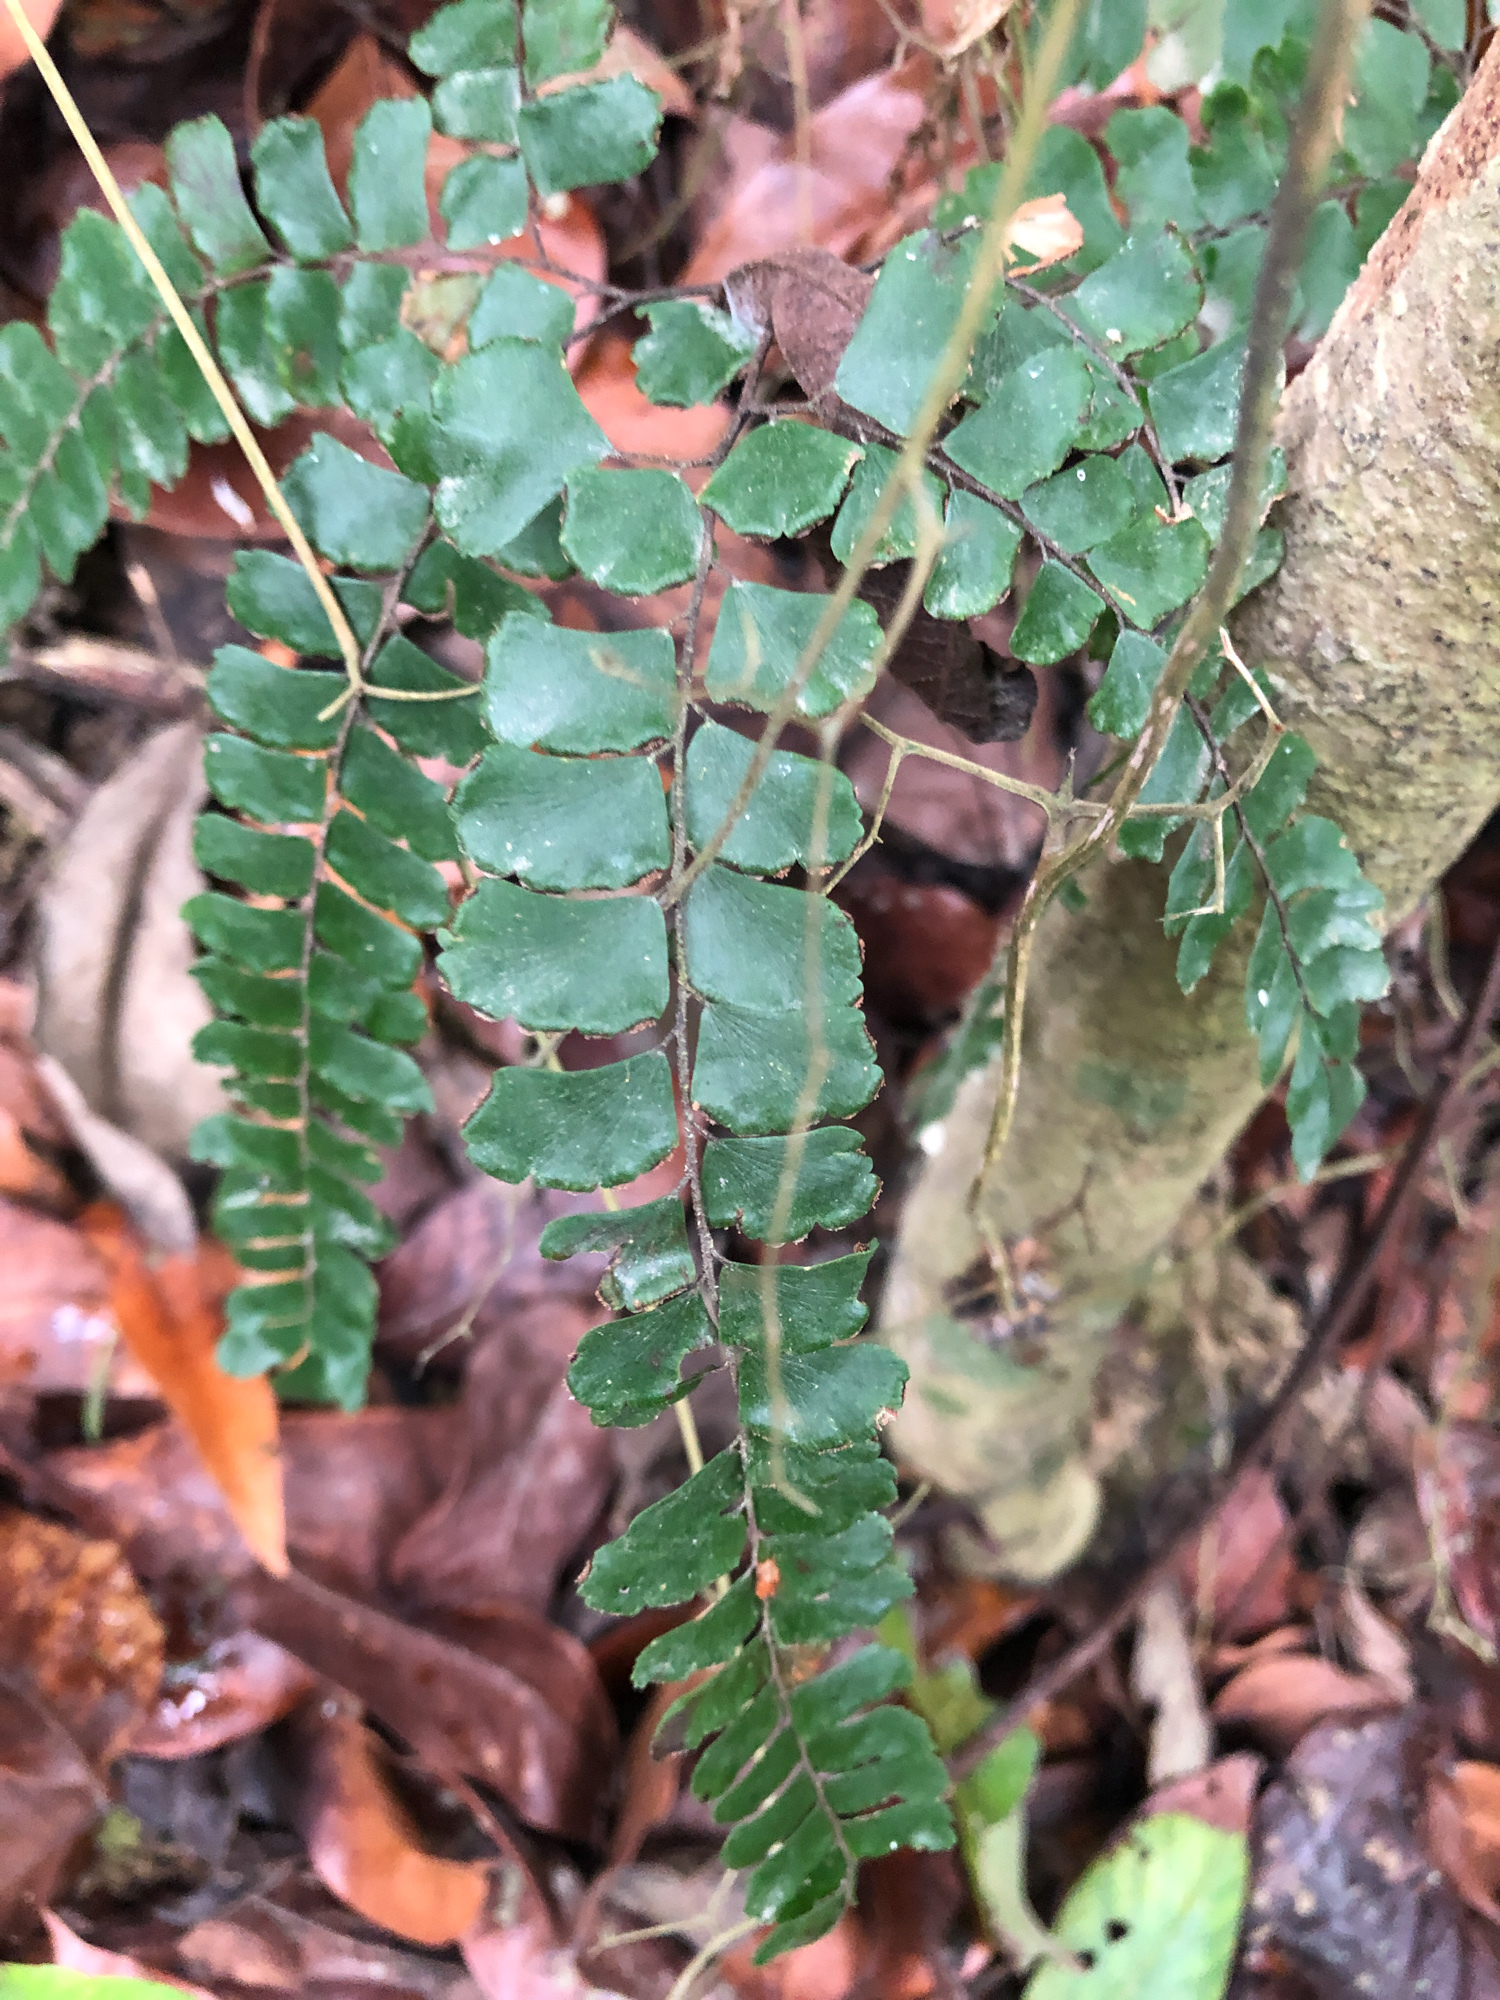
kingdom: Plantae
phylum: Tracheophyta
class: Polypodiopsida
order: Polypodiales
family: Pteridaceae
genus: Adiantum
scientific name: Adiantum flabellulatum
